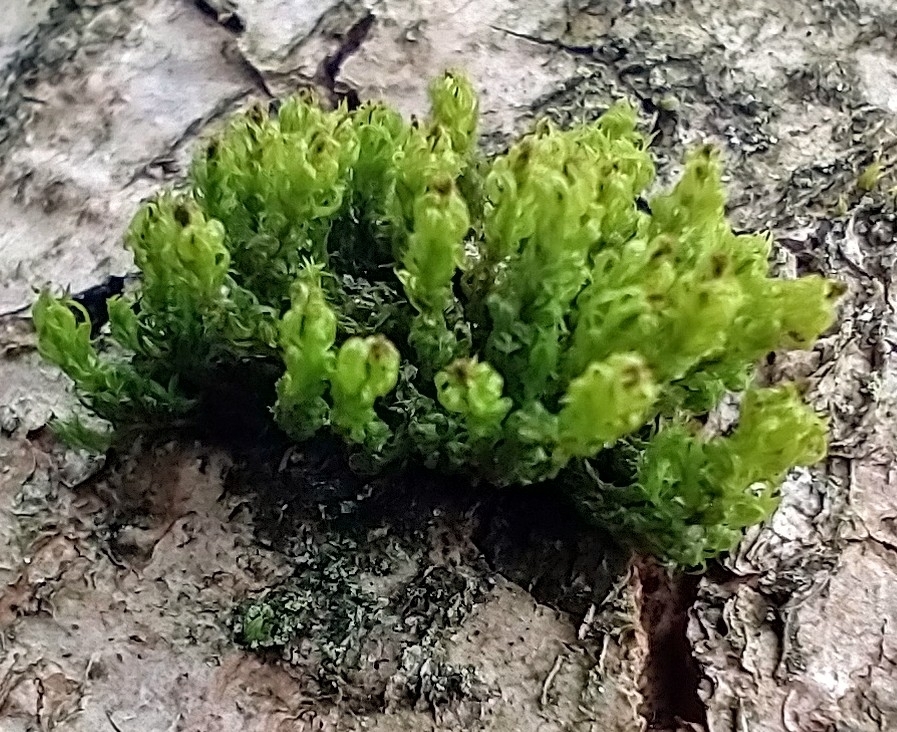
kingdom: Plantae
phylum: Bryophyta
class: Bryopsida
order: Orthotrichales
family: Orthotrichaceae
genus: Plenogemma
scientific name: Plenogemma phyllantha
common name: Frizzled pincushion
